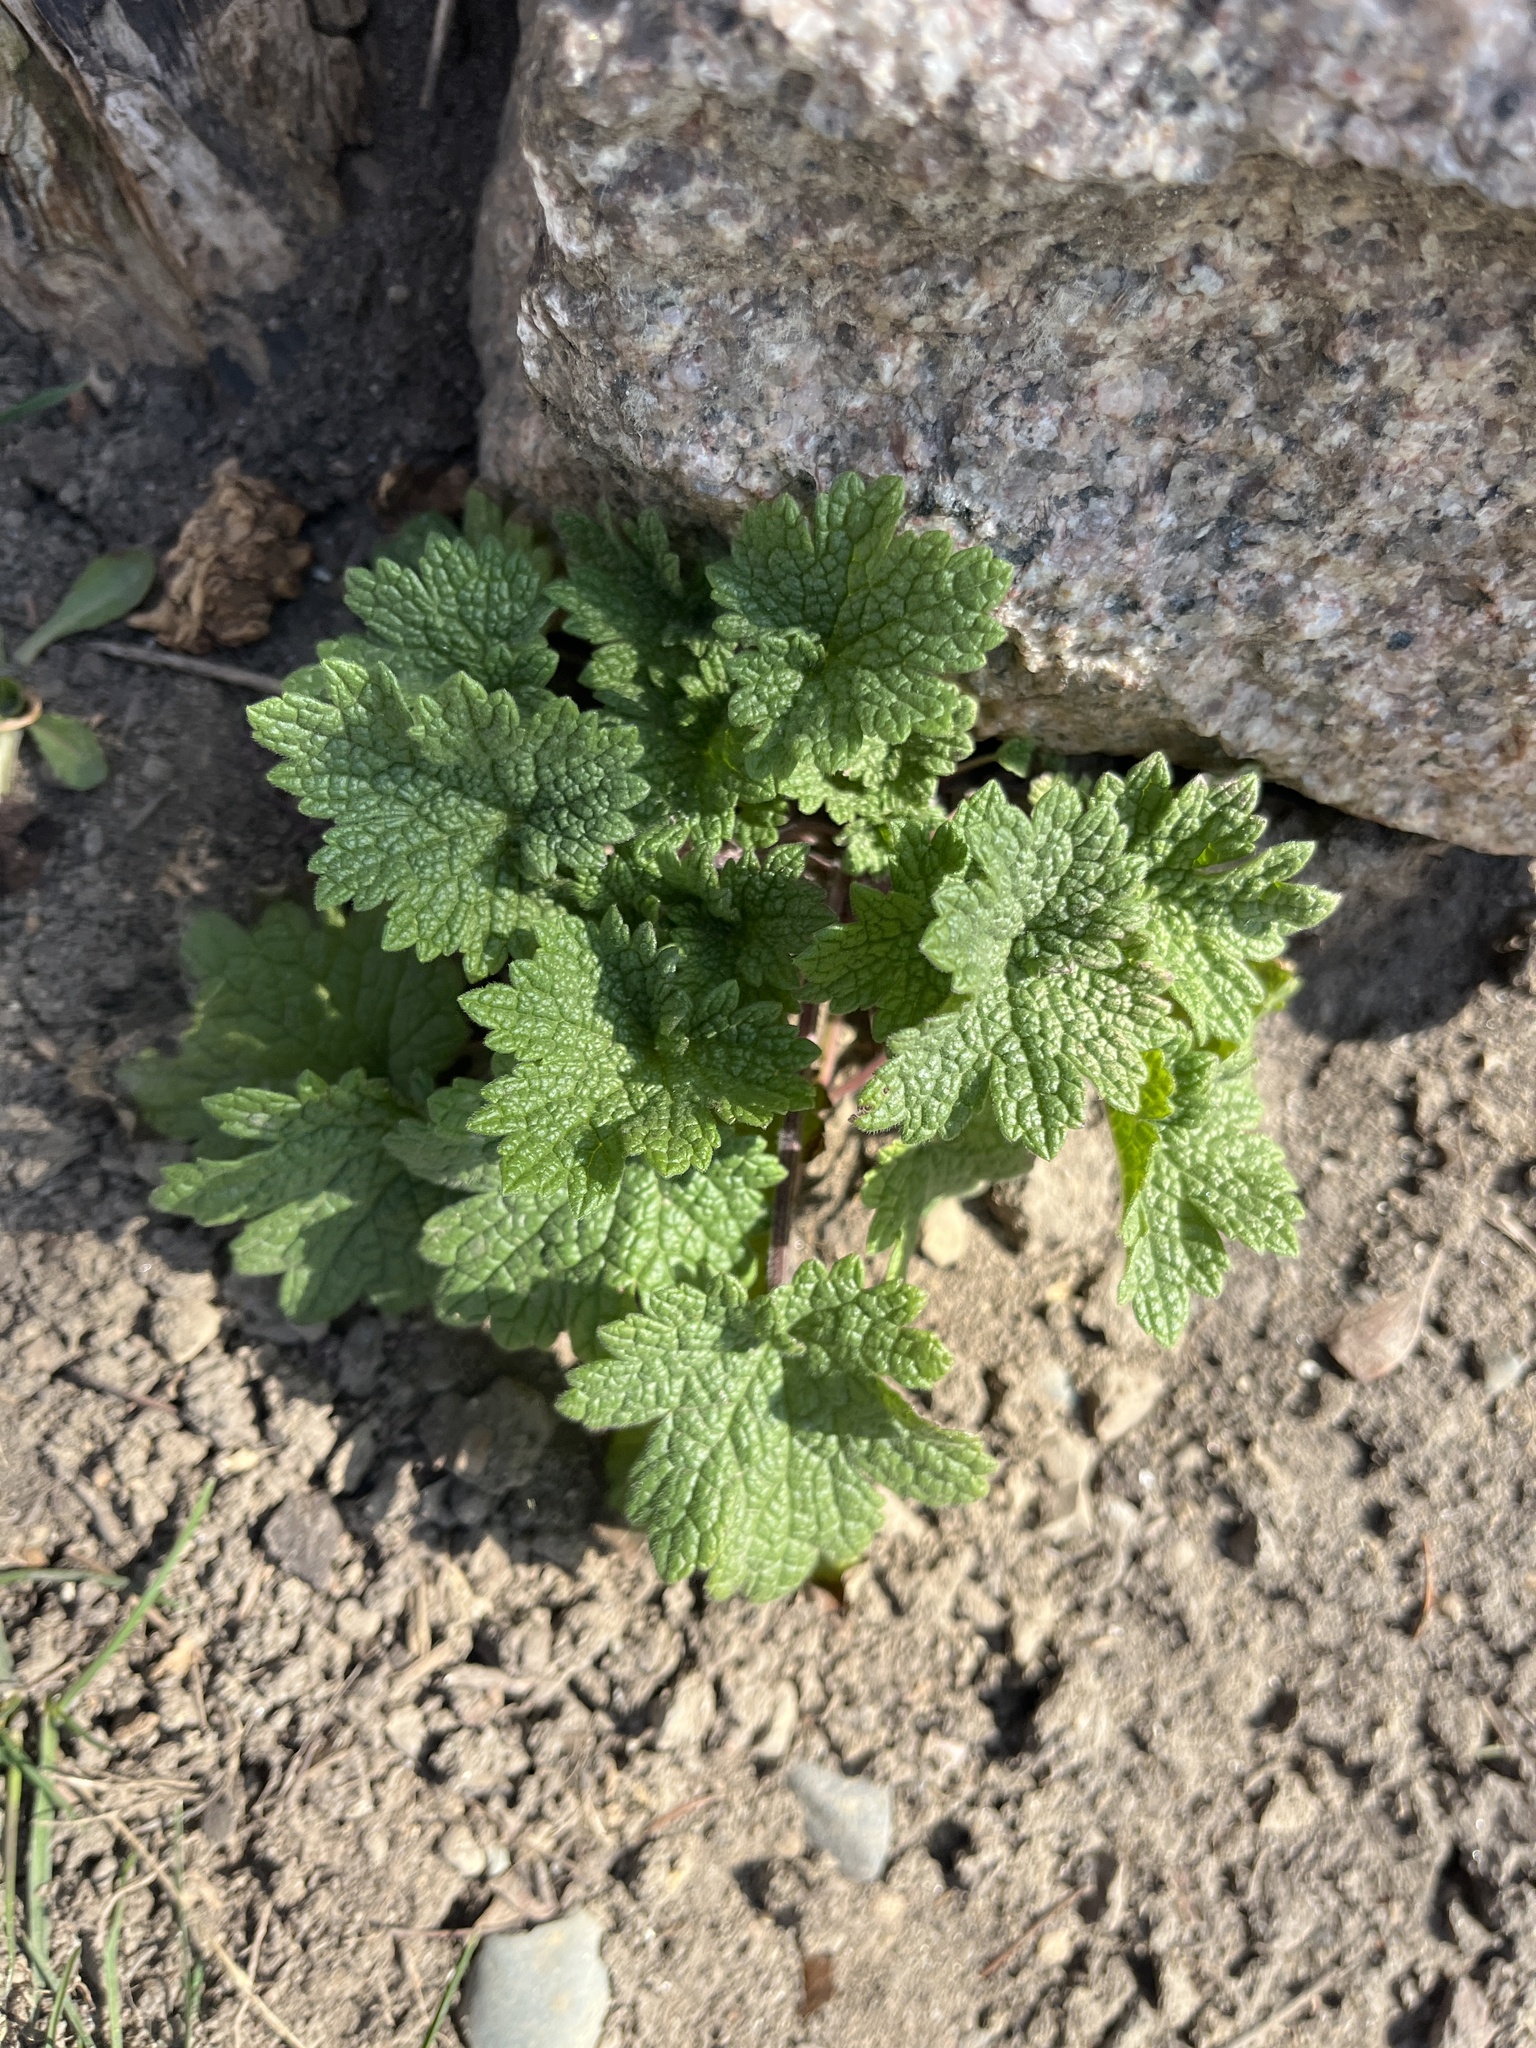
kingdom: Plantae
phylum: Tracheophyta
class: Magnoliopsida
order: Lamiales
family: Lamiaceae
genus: Leonurus
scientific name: Leonurus cardiaca
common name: Motherwort
